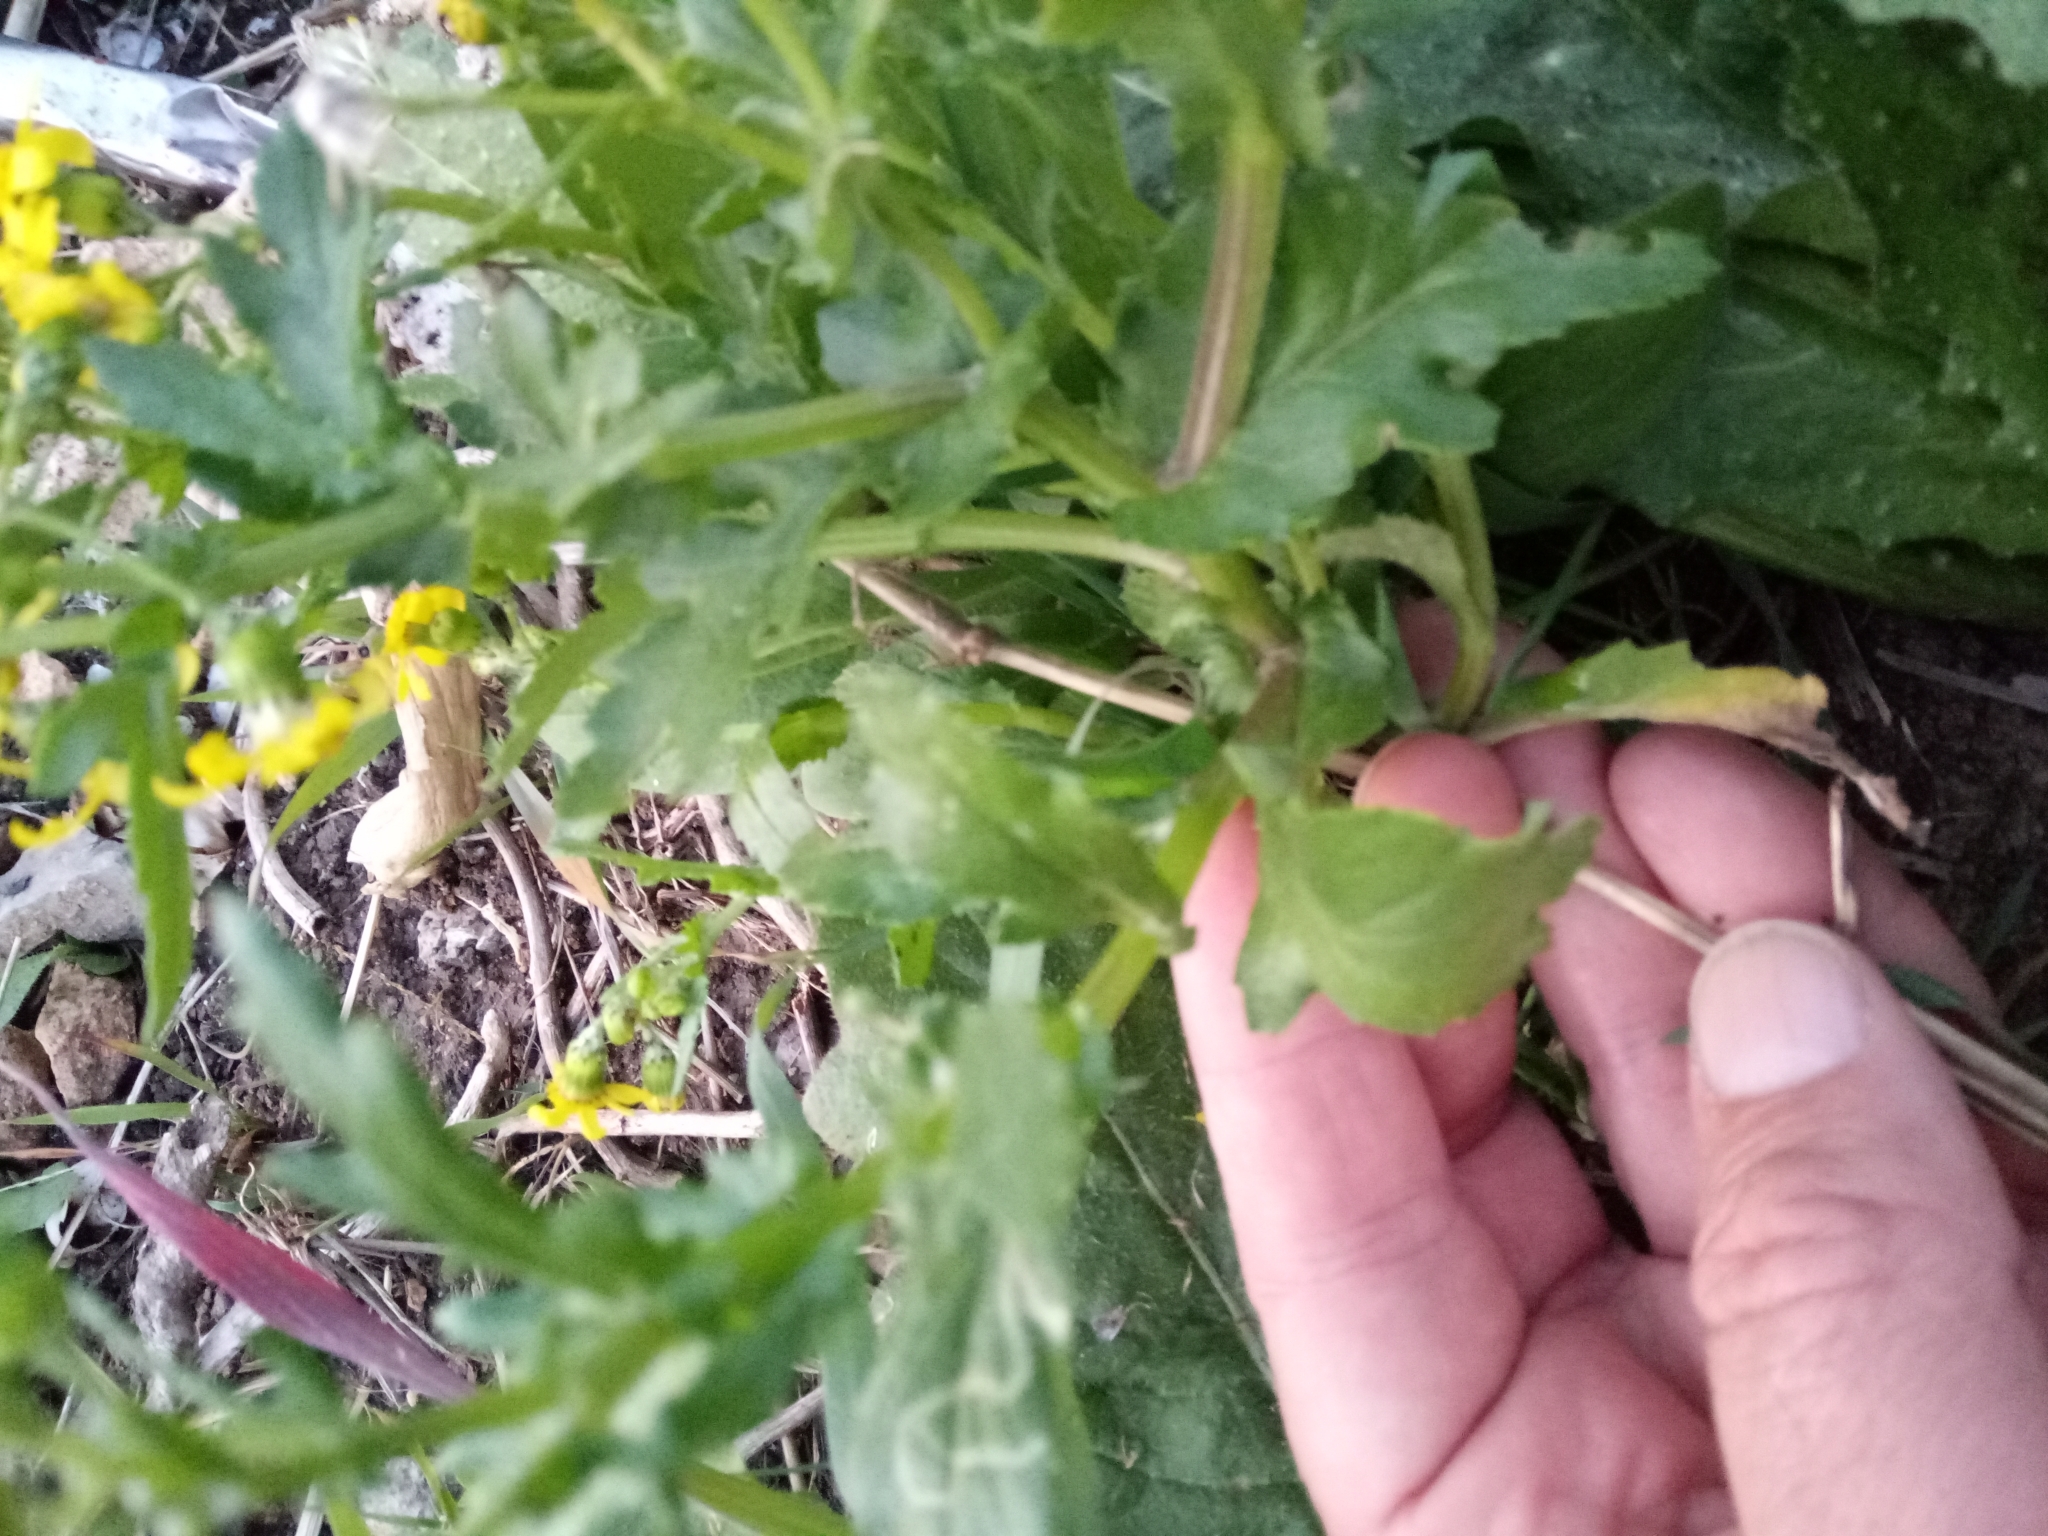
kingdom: Plantae
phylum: Tracheophyta
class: Magnoliopsida
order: Asterales
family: Asteraceae
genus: Senecio
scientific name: Senecio vulgaris
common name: Old-man-in-the-spring
